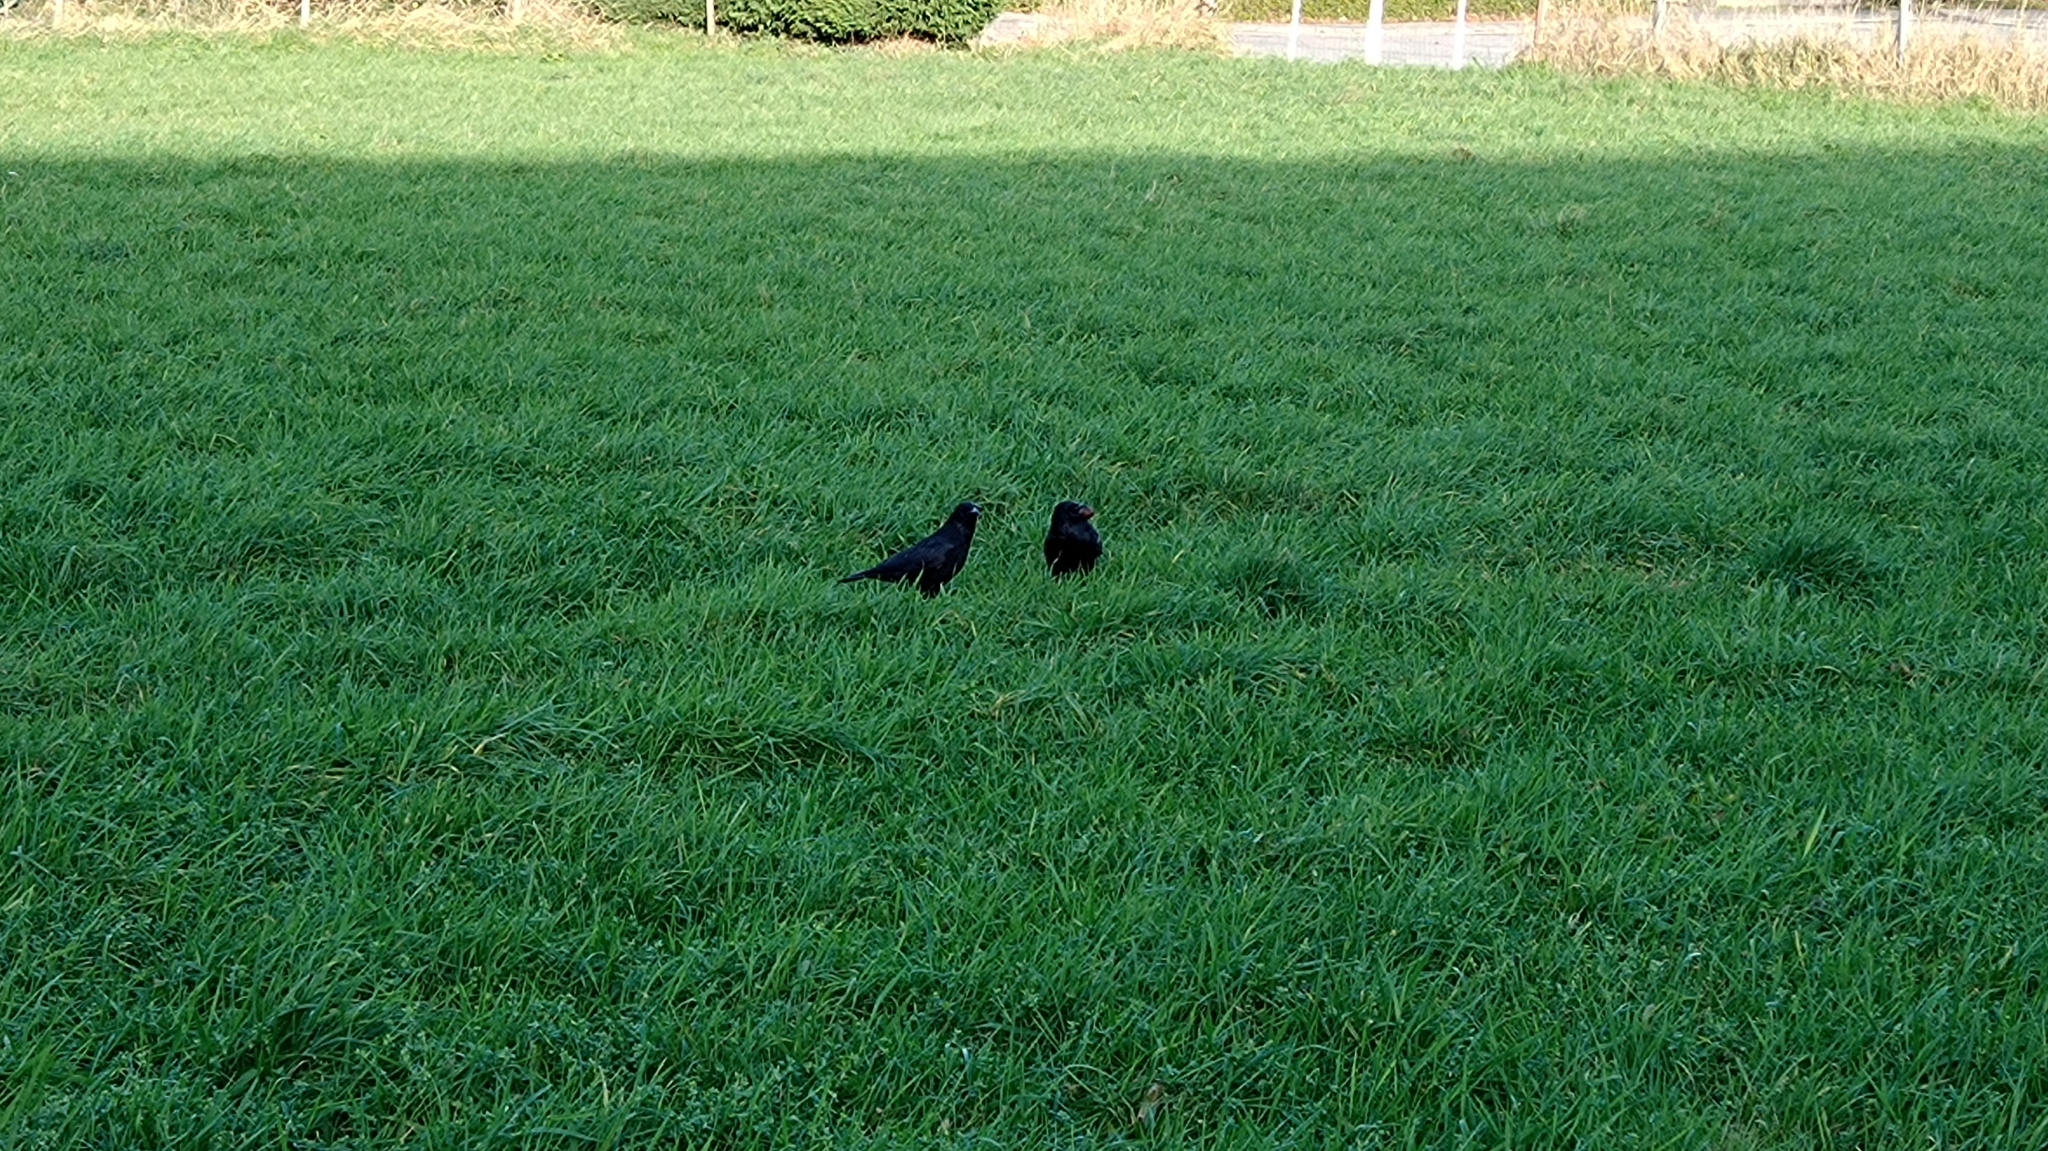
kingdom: Animalia
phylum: Chordata
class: Aves
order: Passeriformes
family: Corvidae
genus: Corvus
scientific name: Corvus corone
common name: Carrion crow
